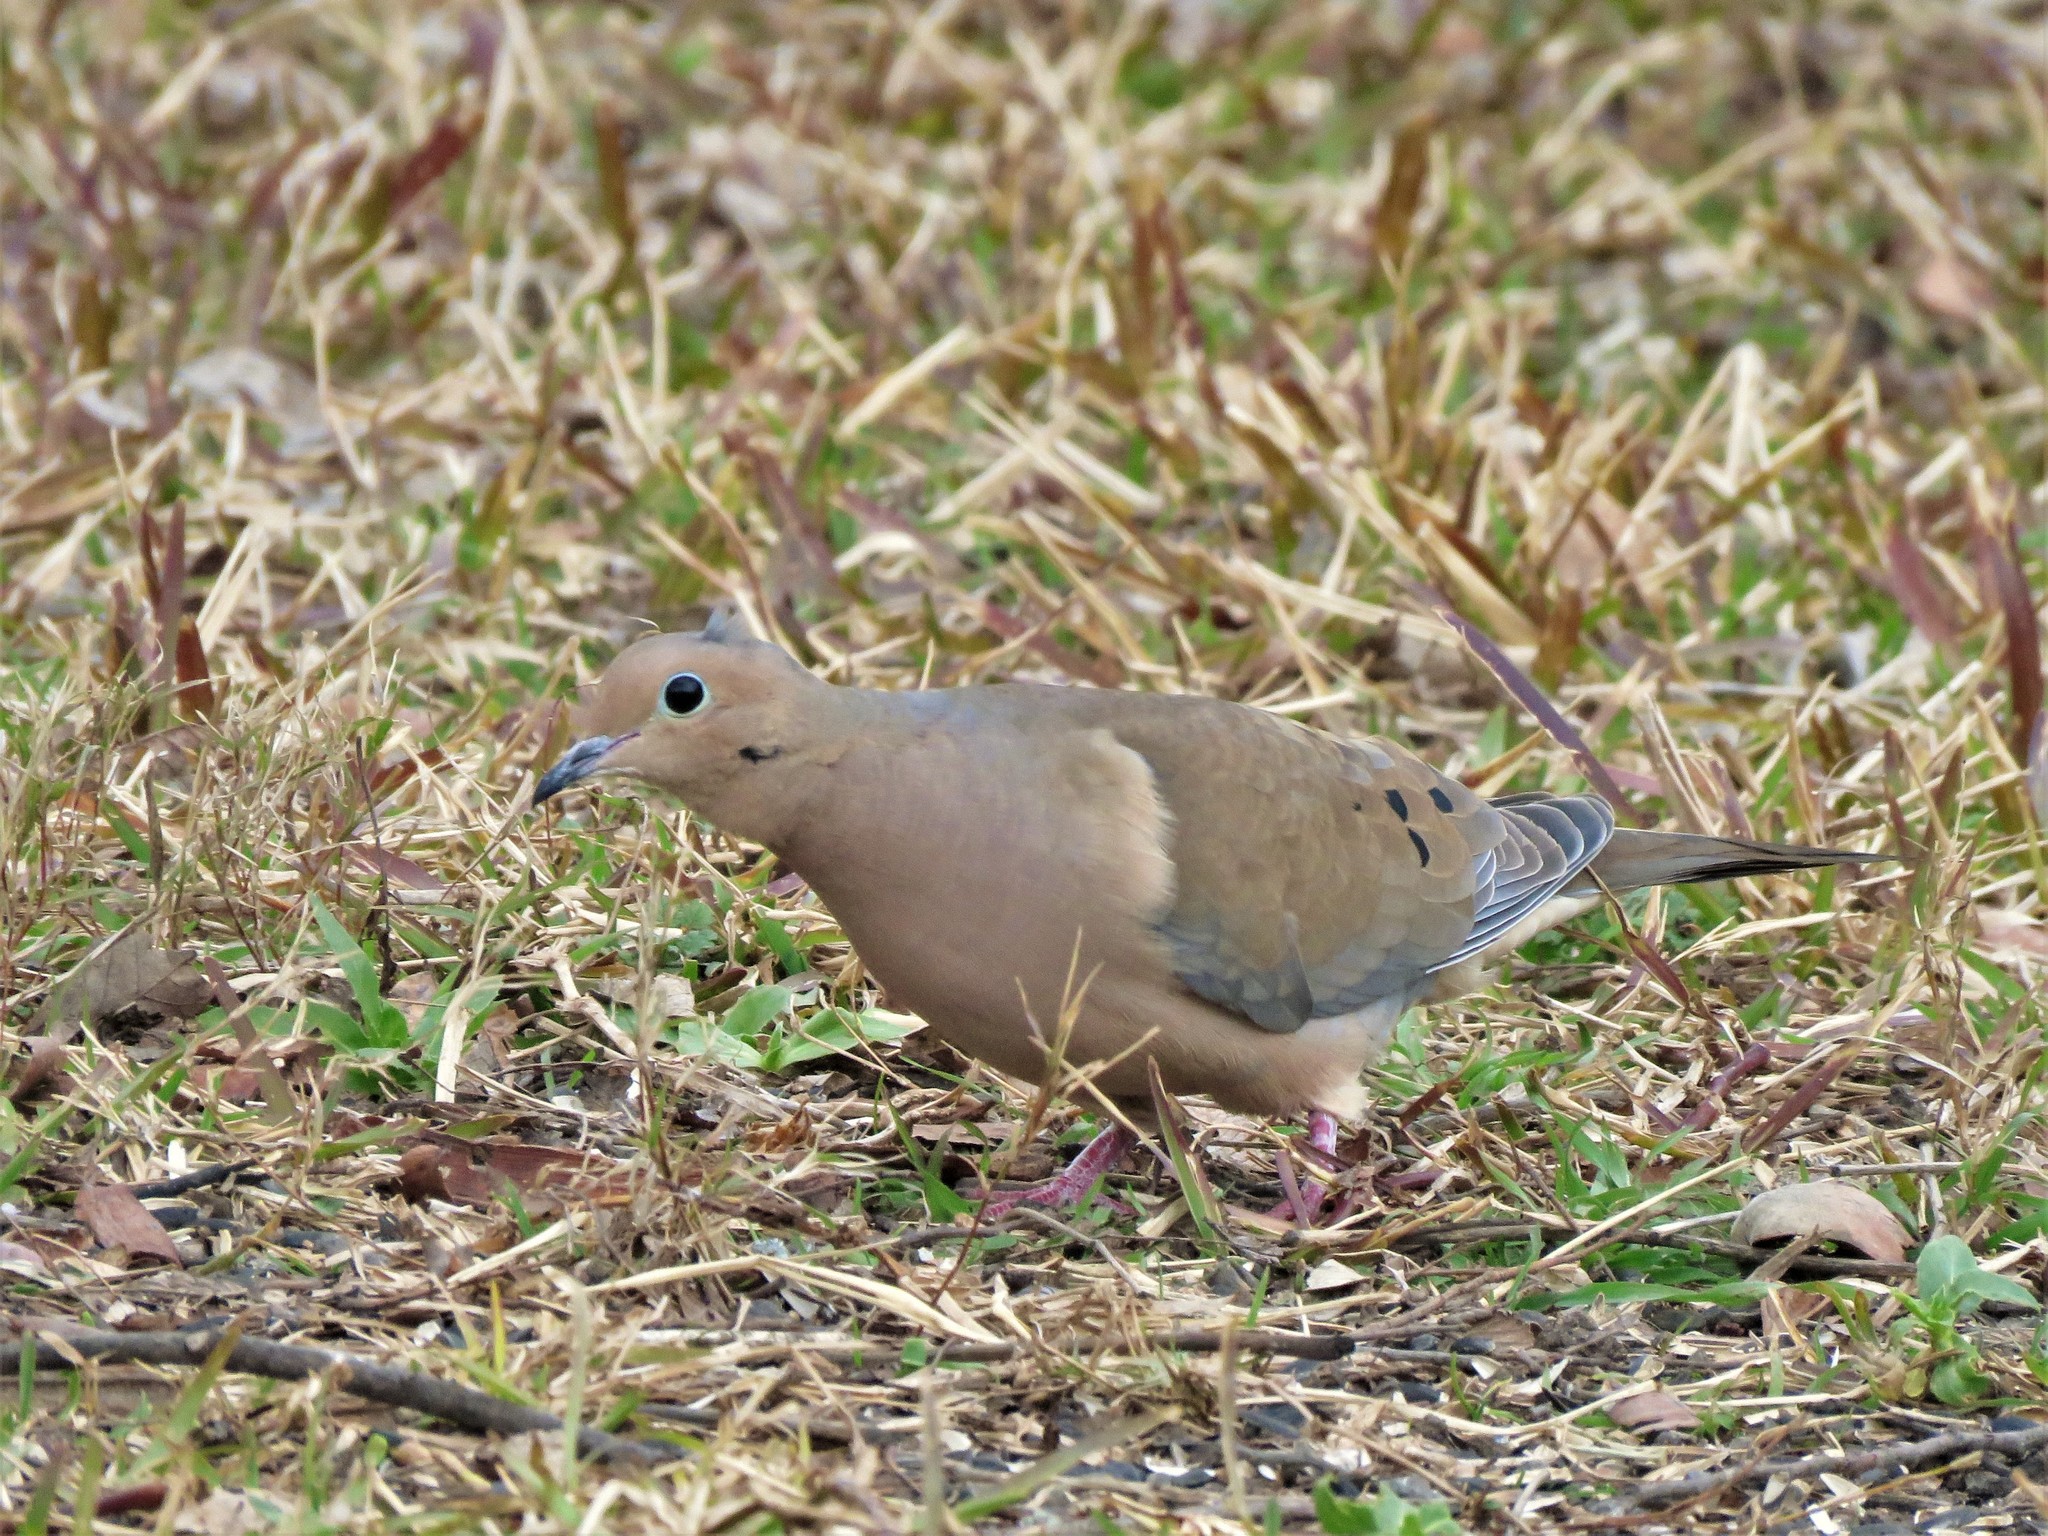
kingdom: Animalia
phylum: Chordata
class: Aves
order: Columbiformes
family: Columbidae
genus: Zenaida
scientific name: Zenaida macroura
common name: Mourning dove
